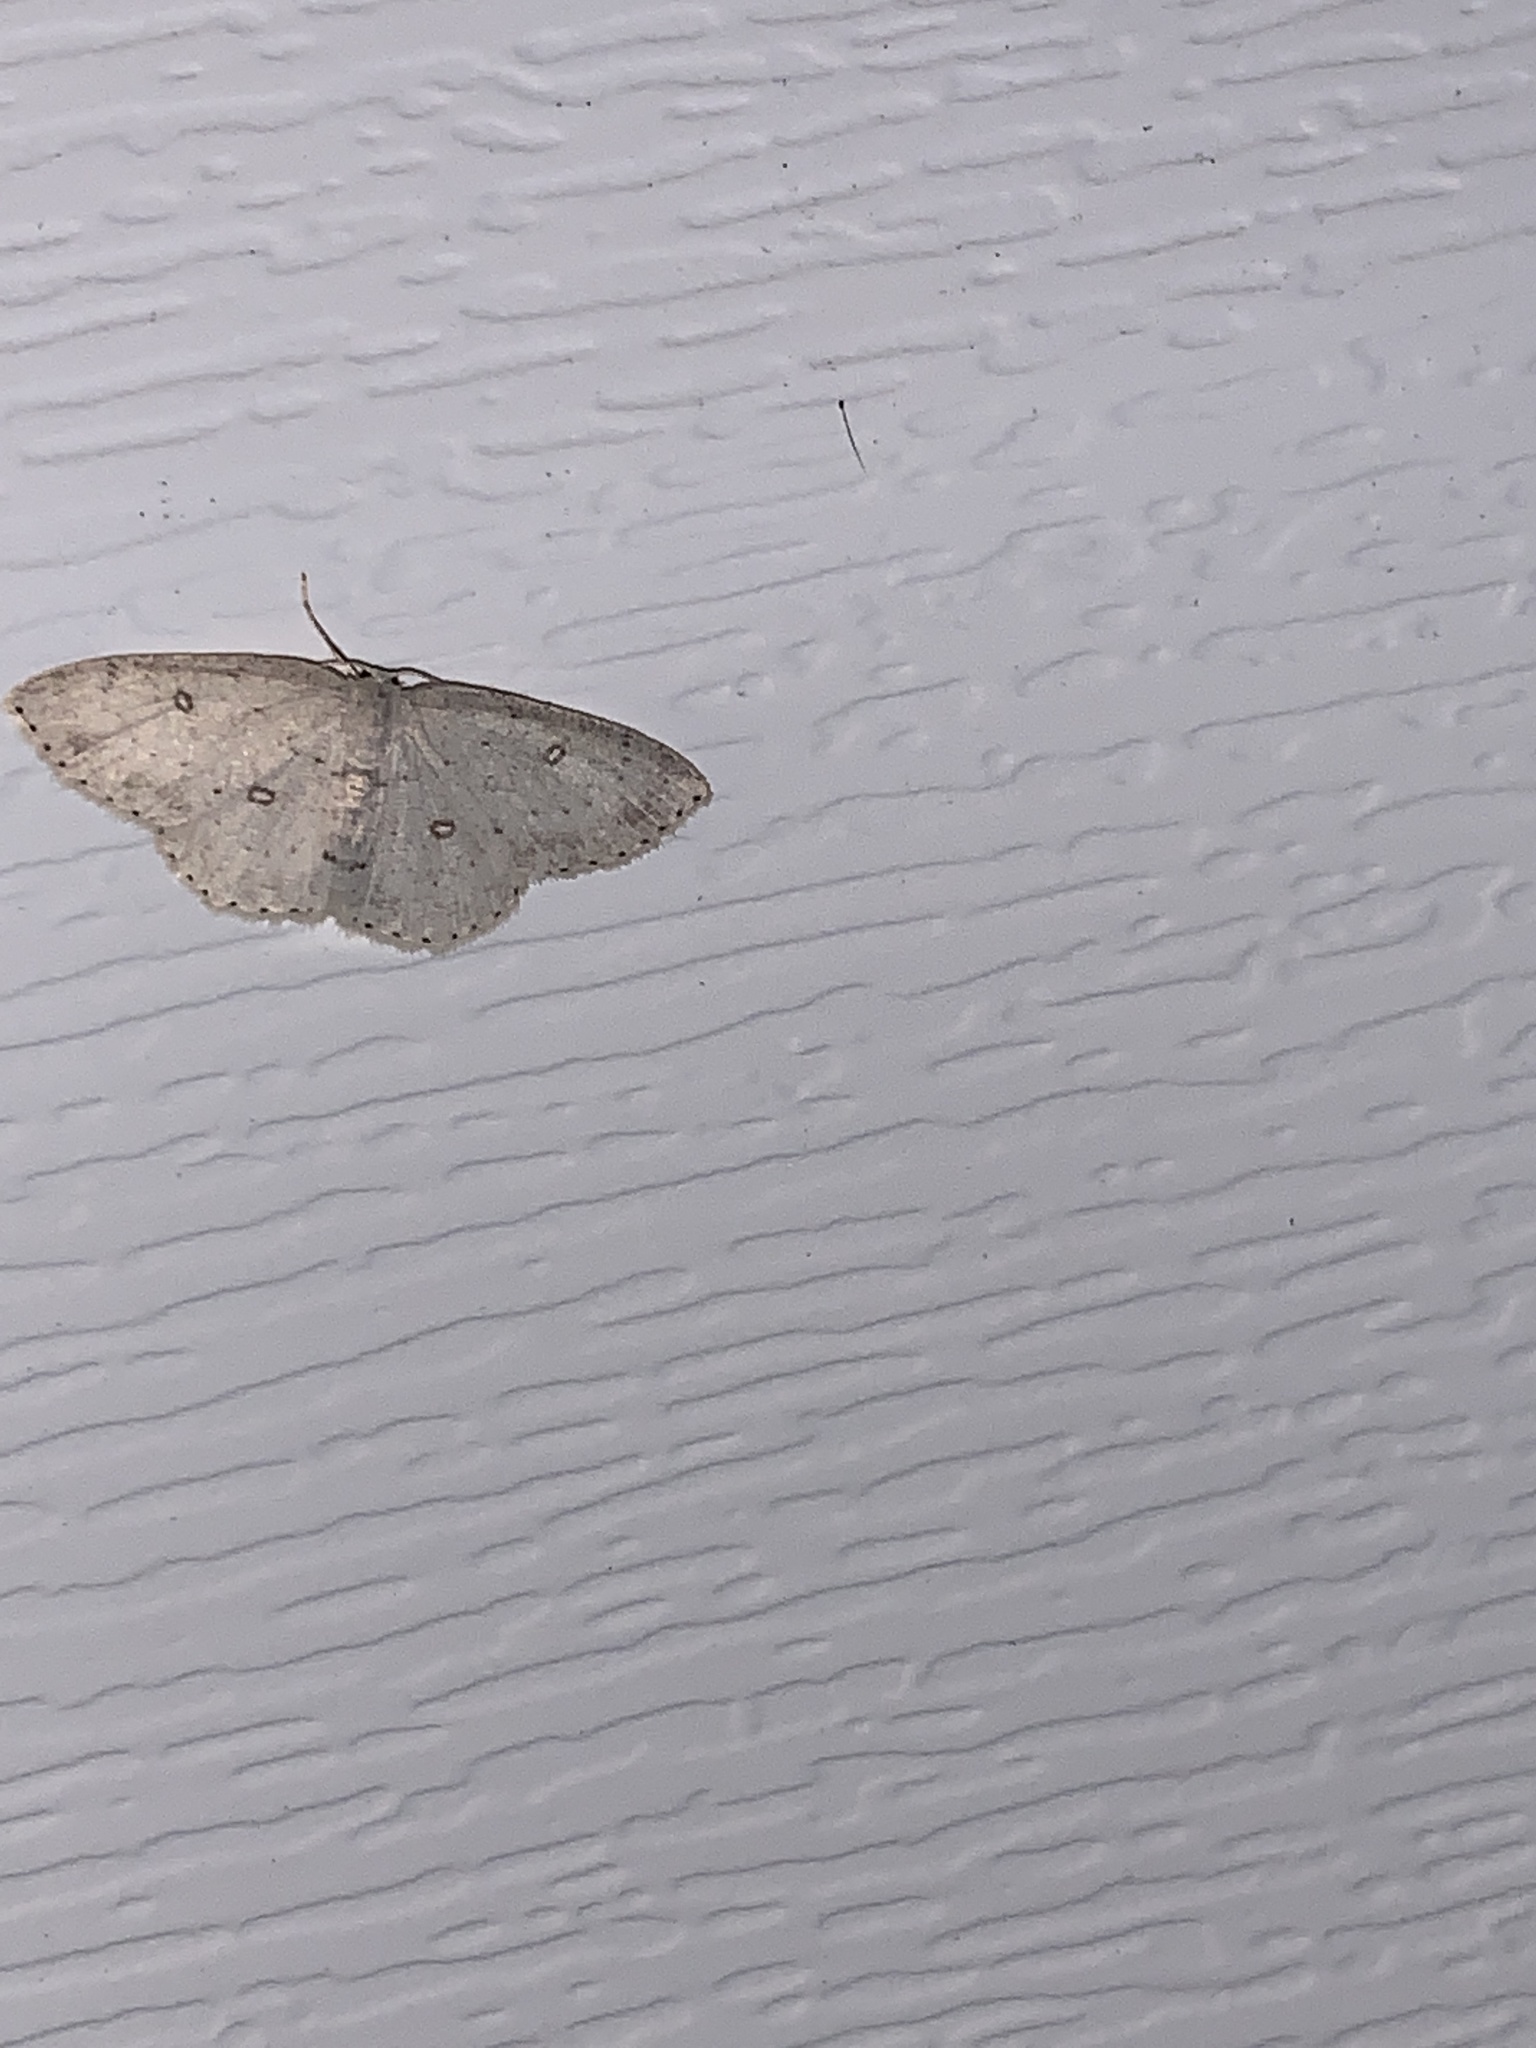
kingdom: Animalia
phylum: Arthropoda
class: Insecta
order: Lepidoptera
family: Geometridae
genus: Cyclophora
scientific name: Cyclophora pendulinaria
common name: Sweet fern geometer
